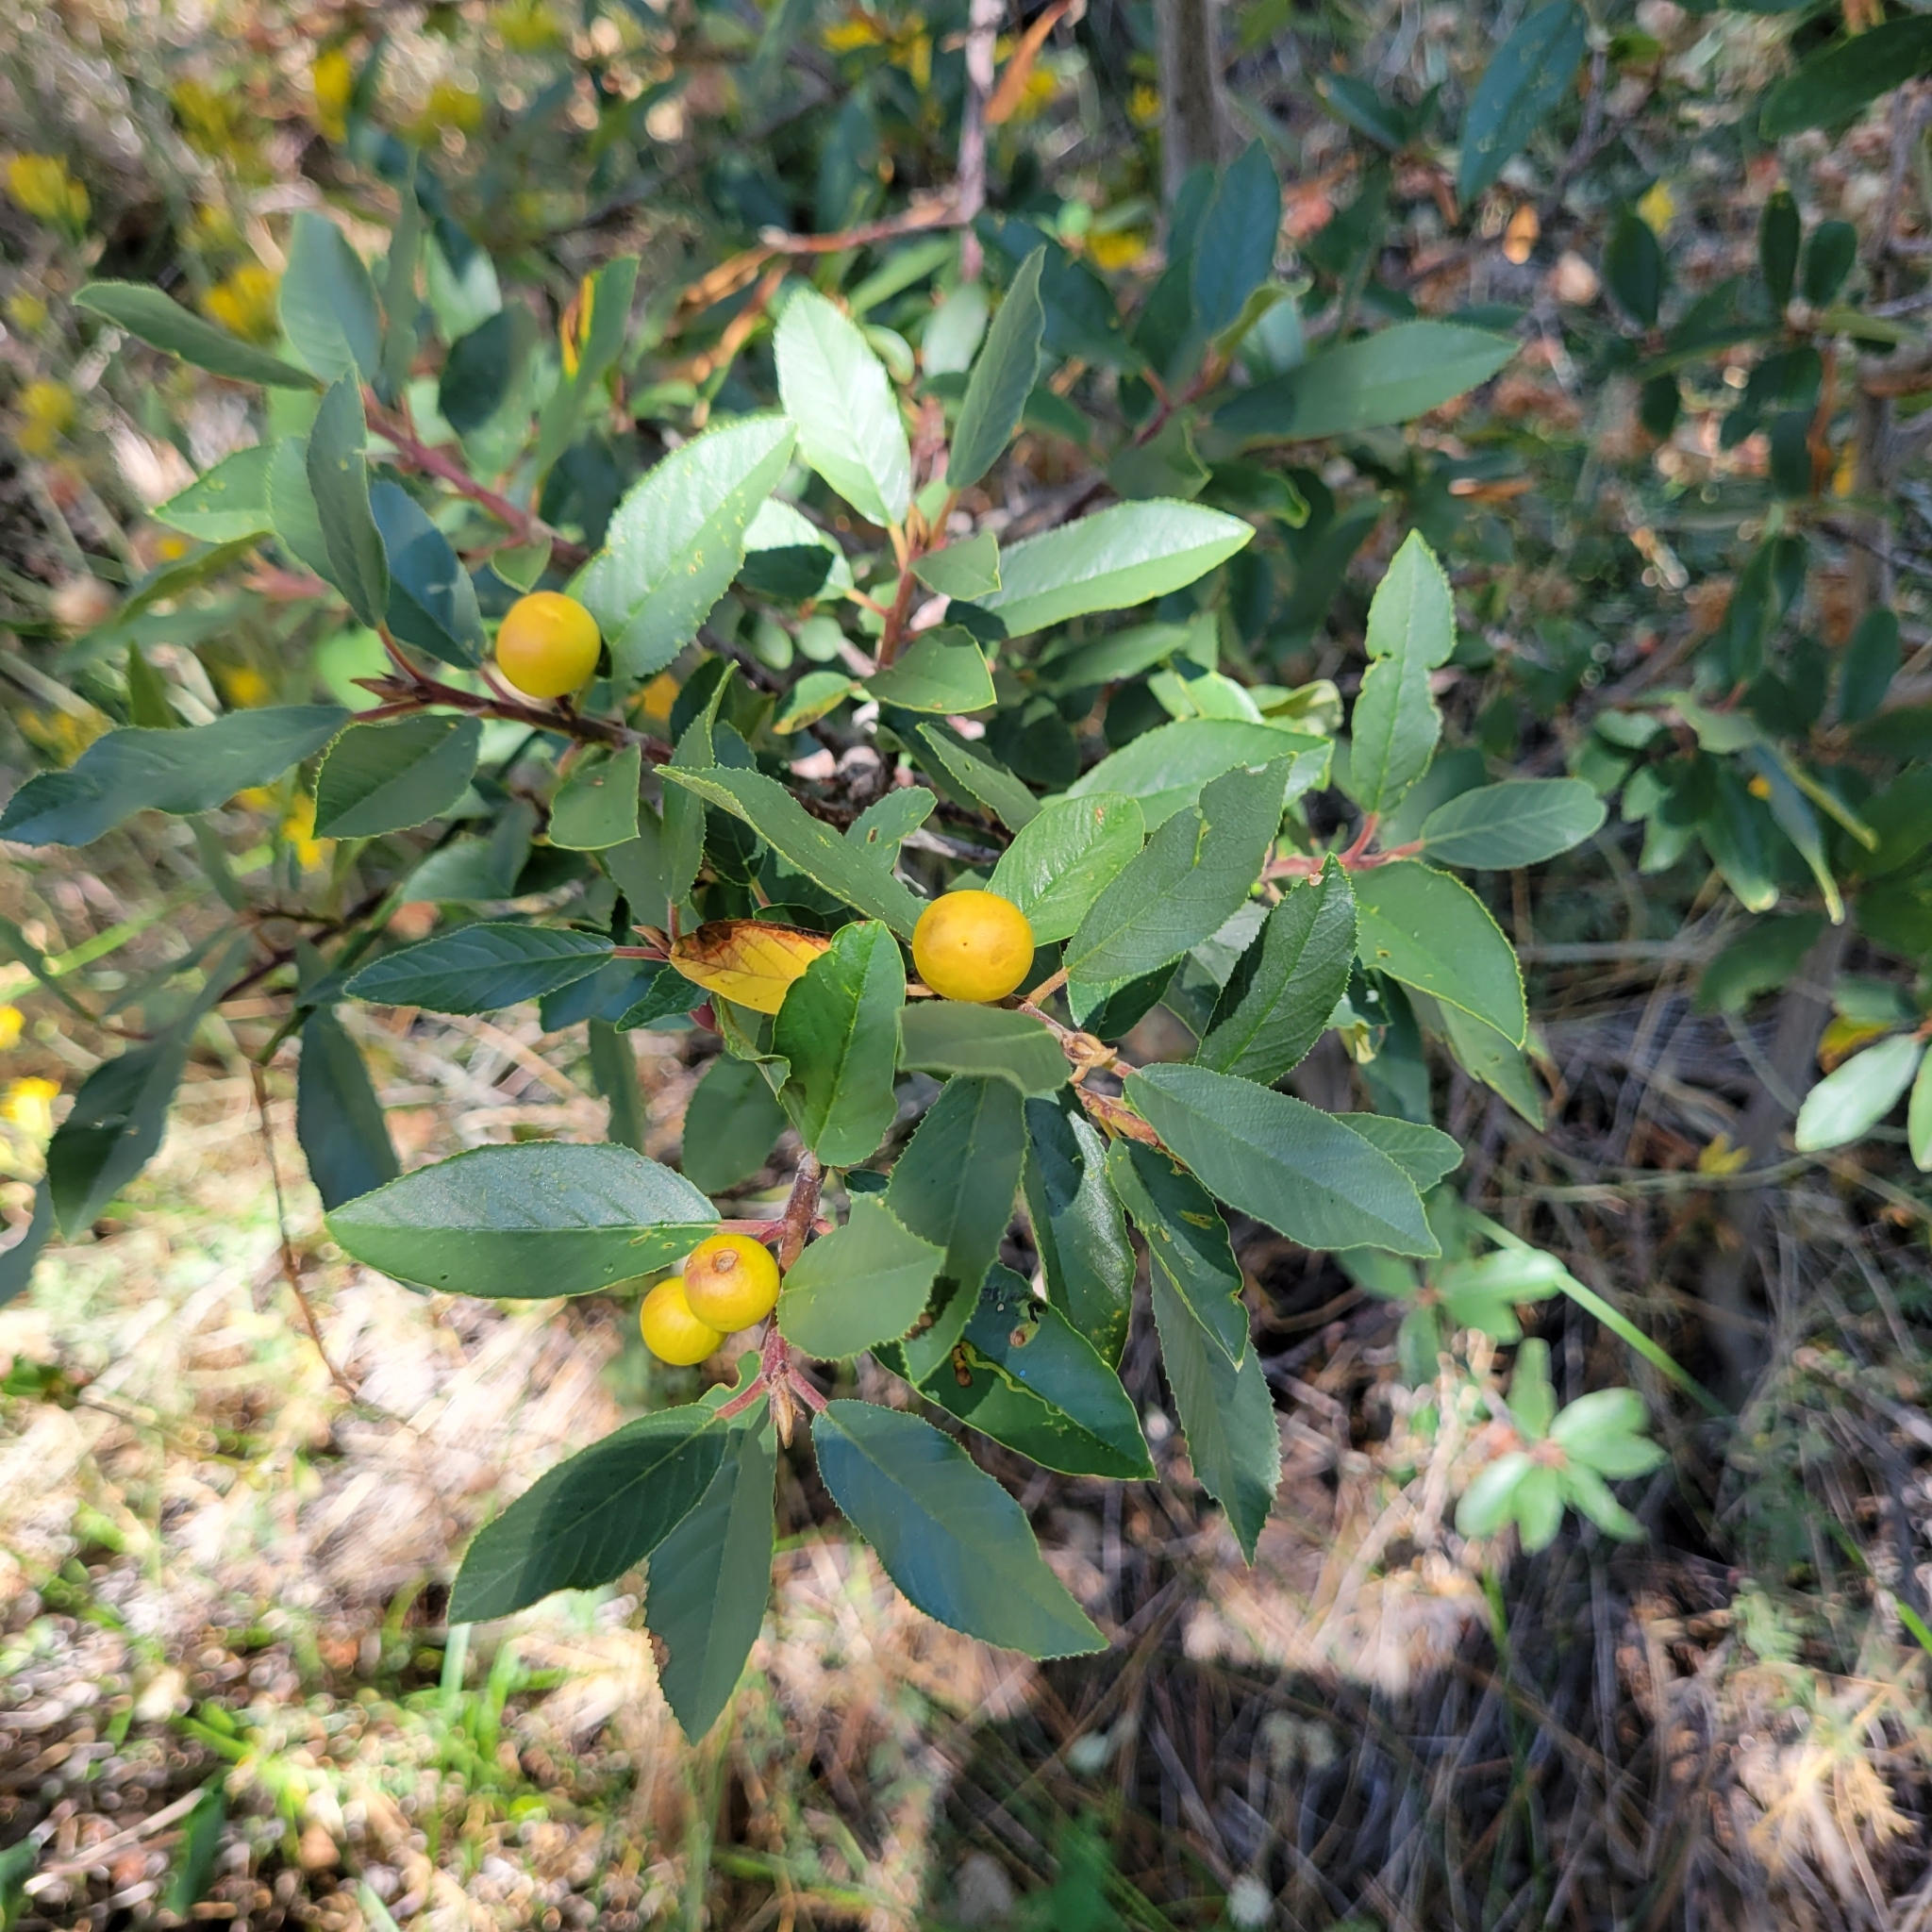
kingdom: Plantae
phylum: Tracheophyta
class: Magnoliopsida
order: Rosales
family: Rhamnaceae
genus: Frangula
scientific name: Frangula californica
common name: California buckthorn
